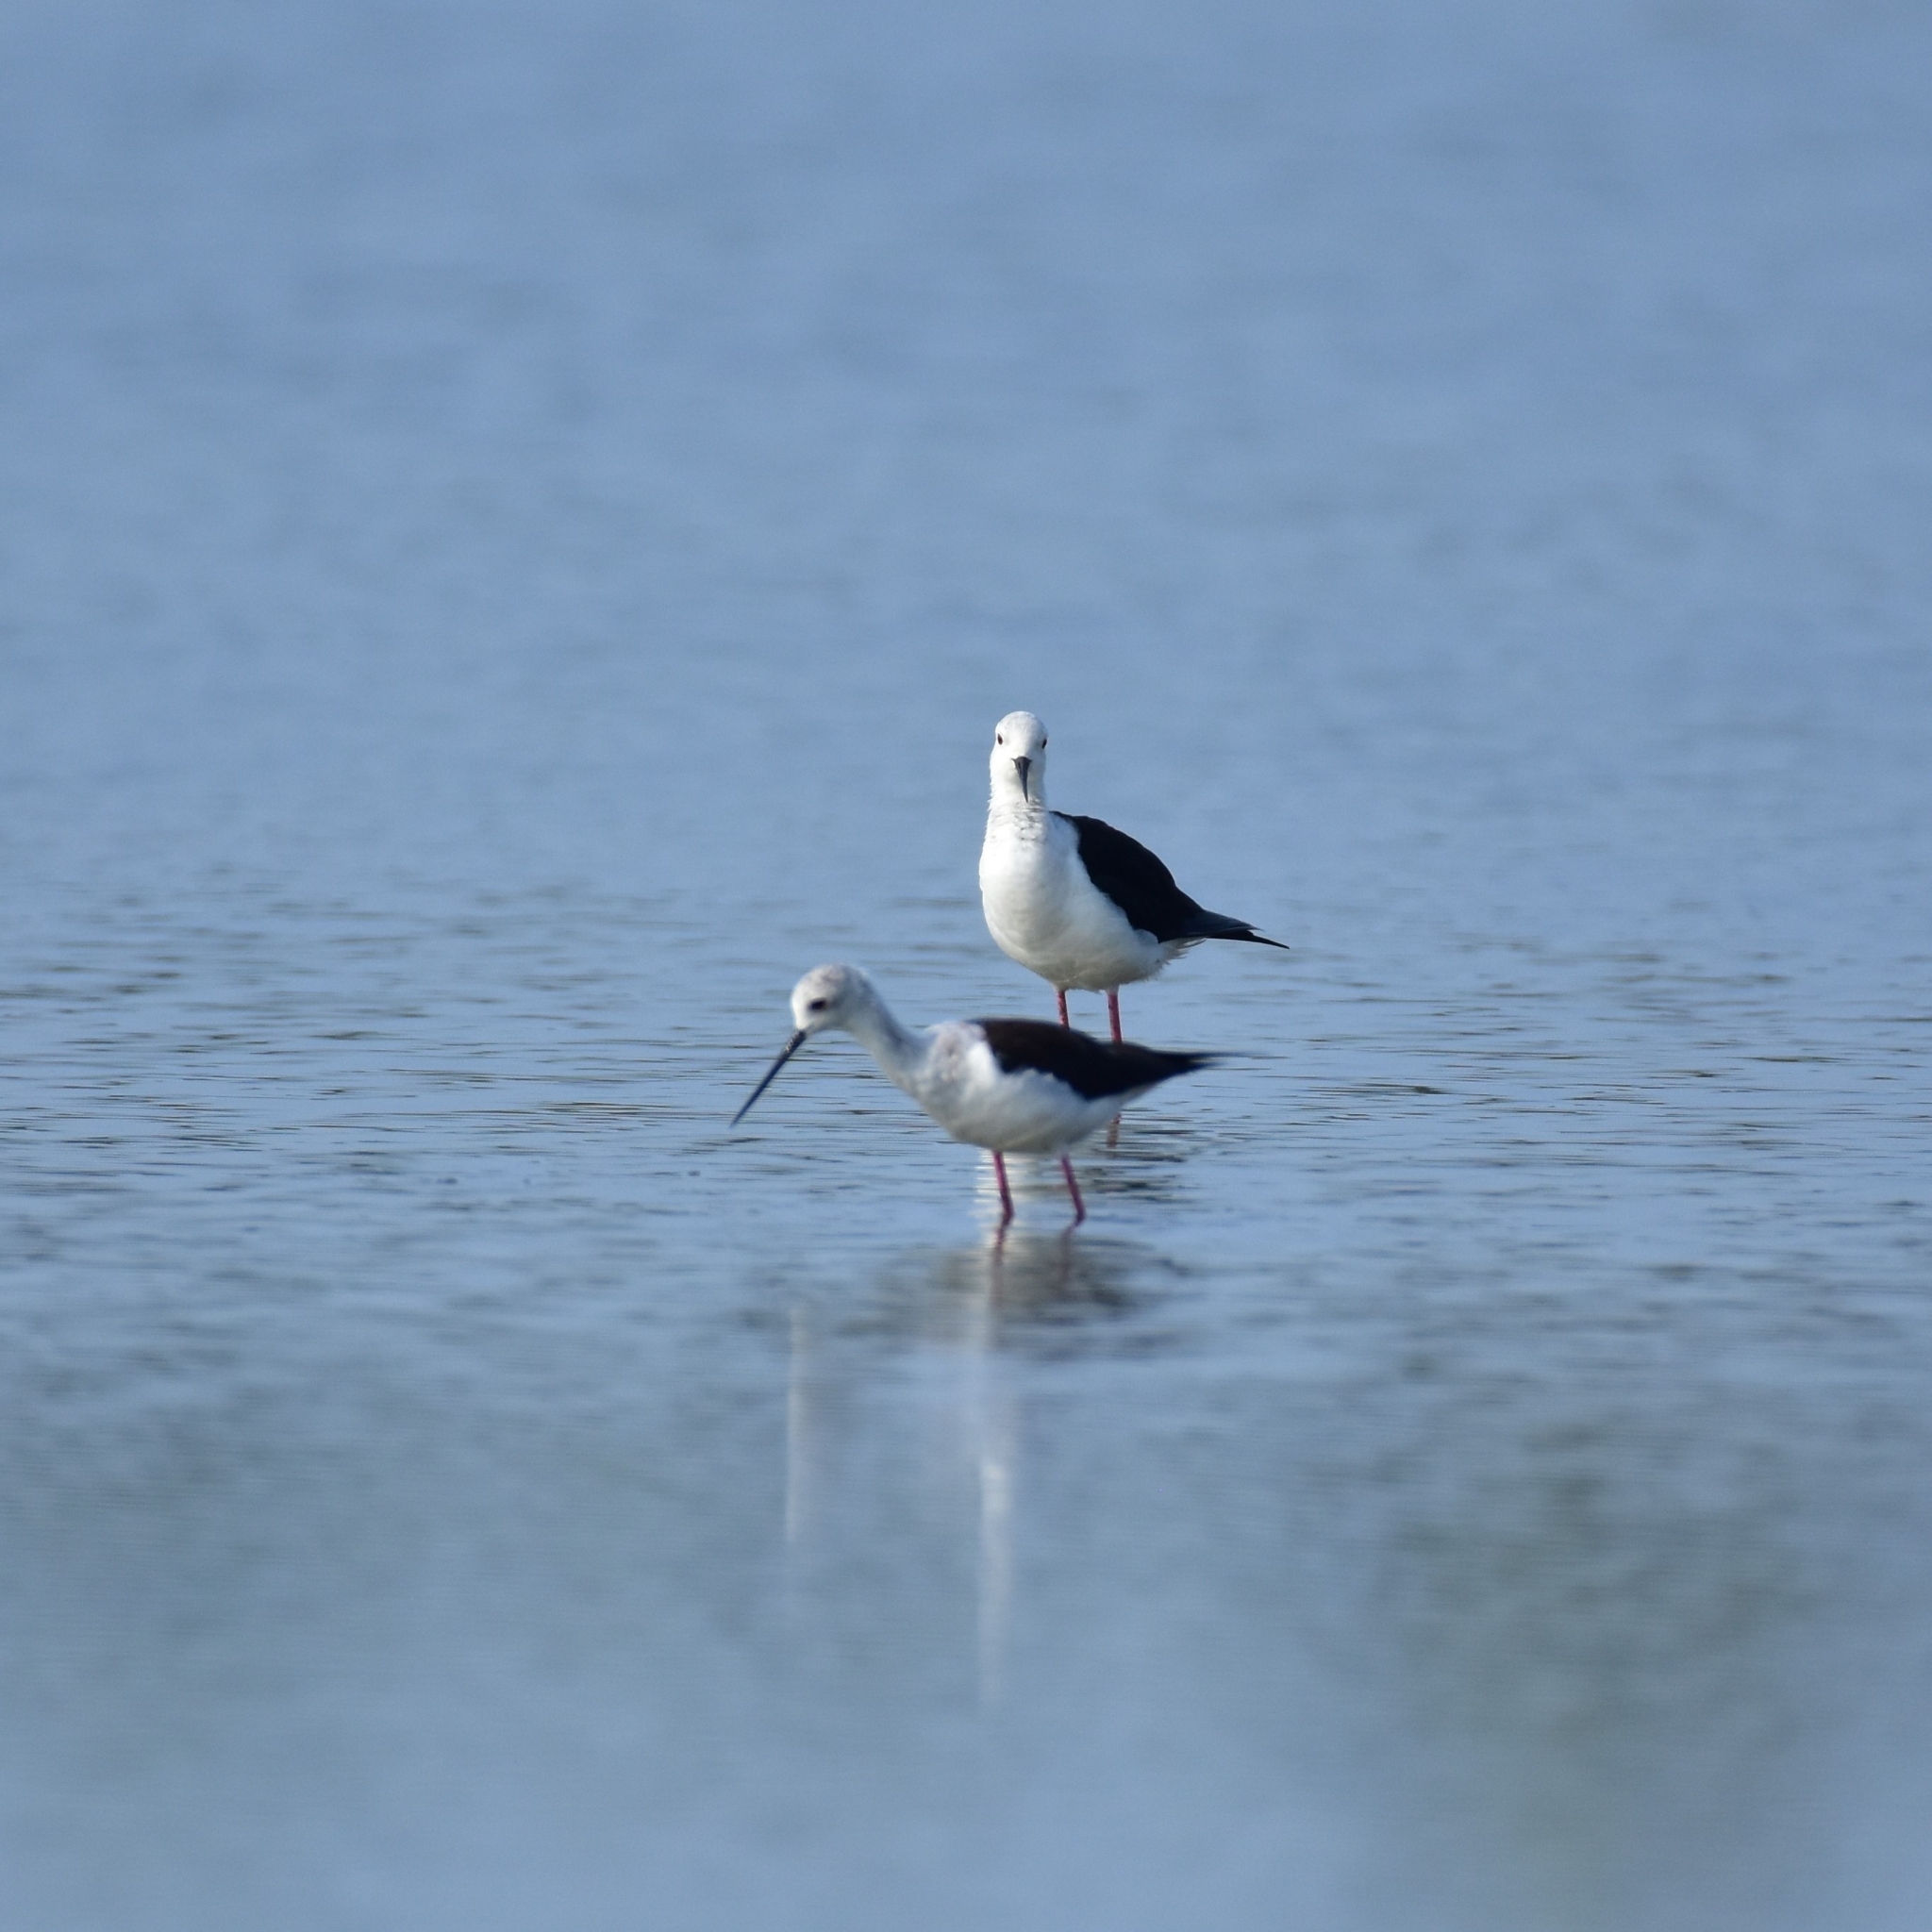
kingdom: Animalia
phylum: Chordata
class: Aves
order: Charadriiformes
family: Recurvirostridae
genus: Himantopus
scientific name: Himantopus himantopus
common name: Black-winged stilt
